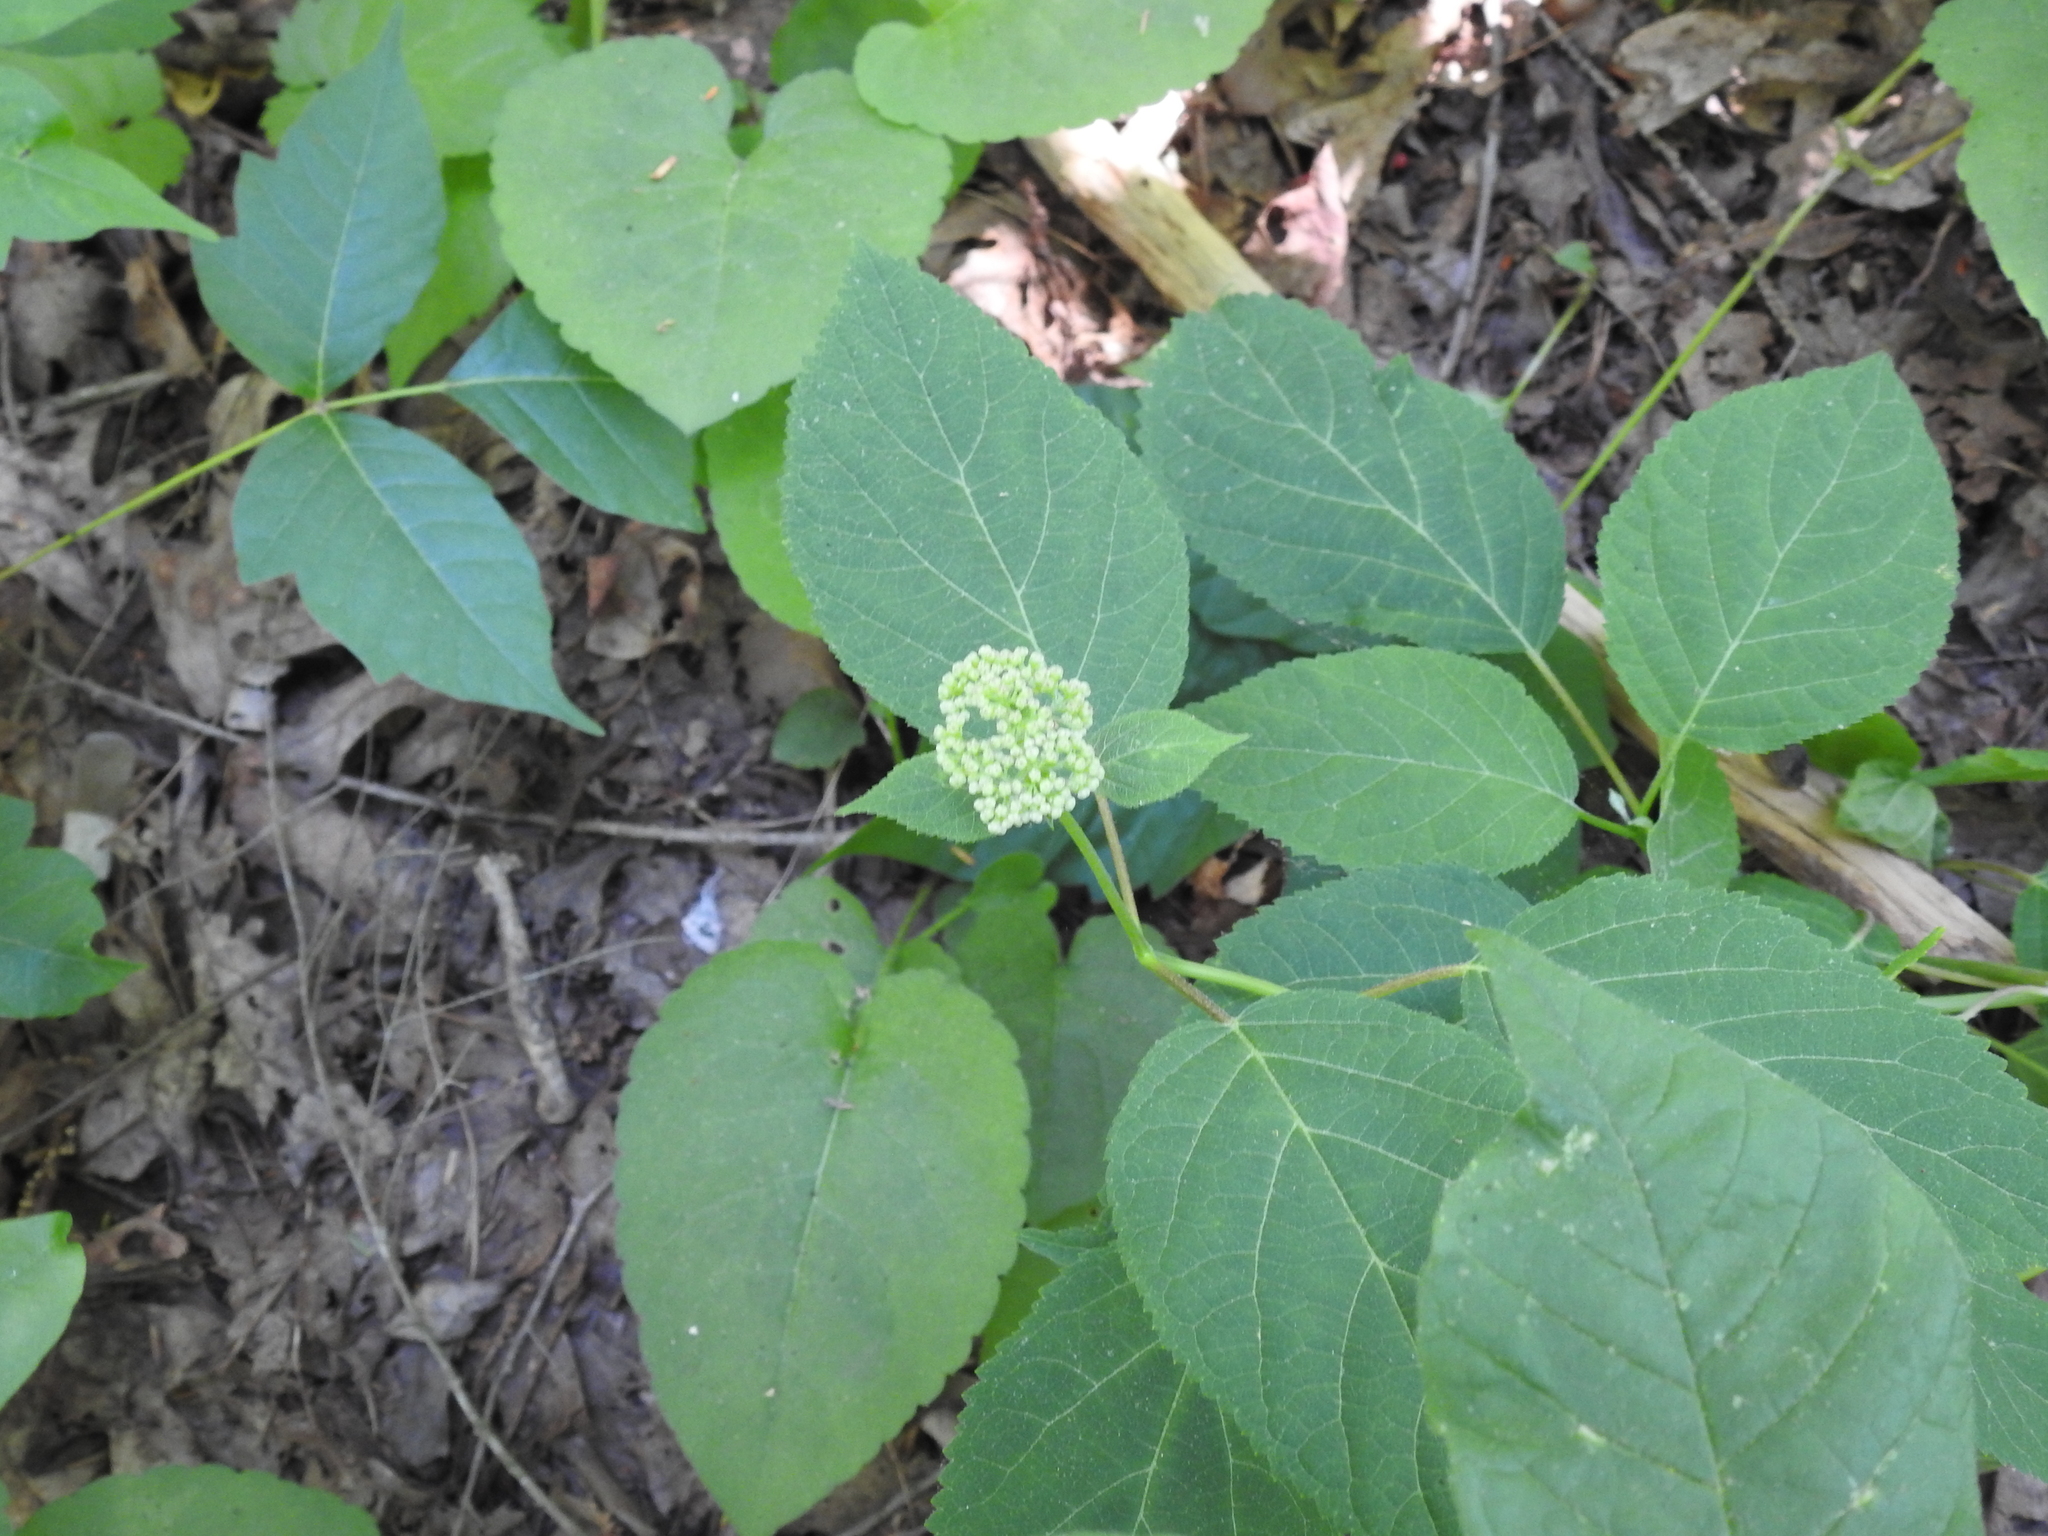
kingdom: Plantae
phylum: Tracheophyta
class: Magnoliopsida
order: Cornales
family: Hydrangeaceae
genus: Hydrangea
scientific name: Hydrangea arborescens
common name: Sevenbark
